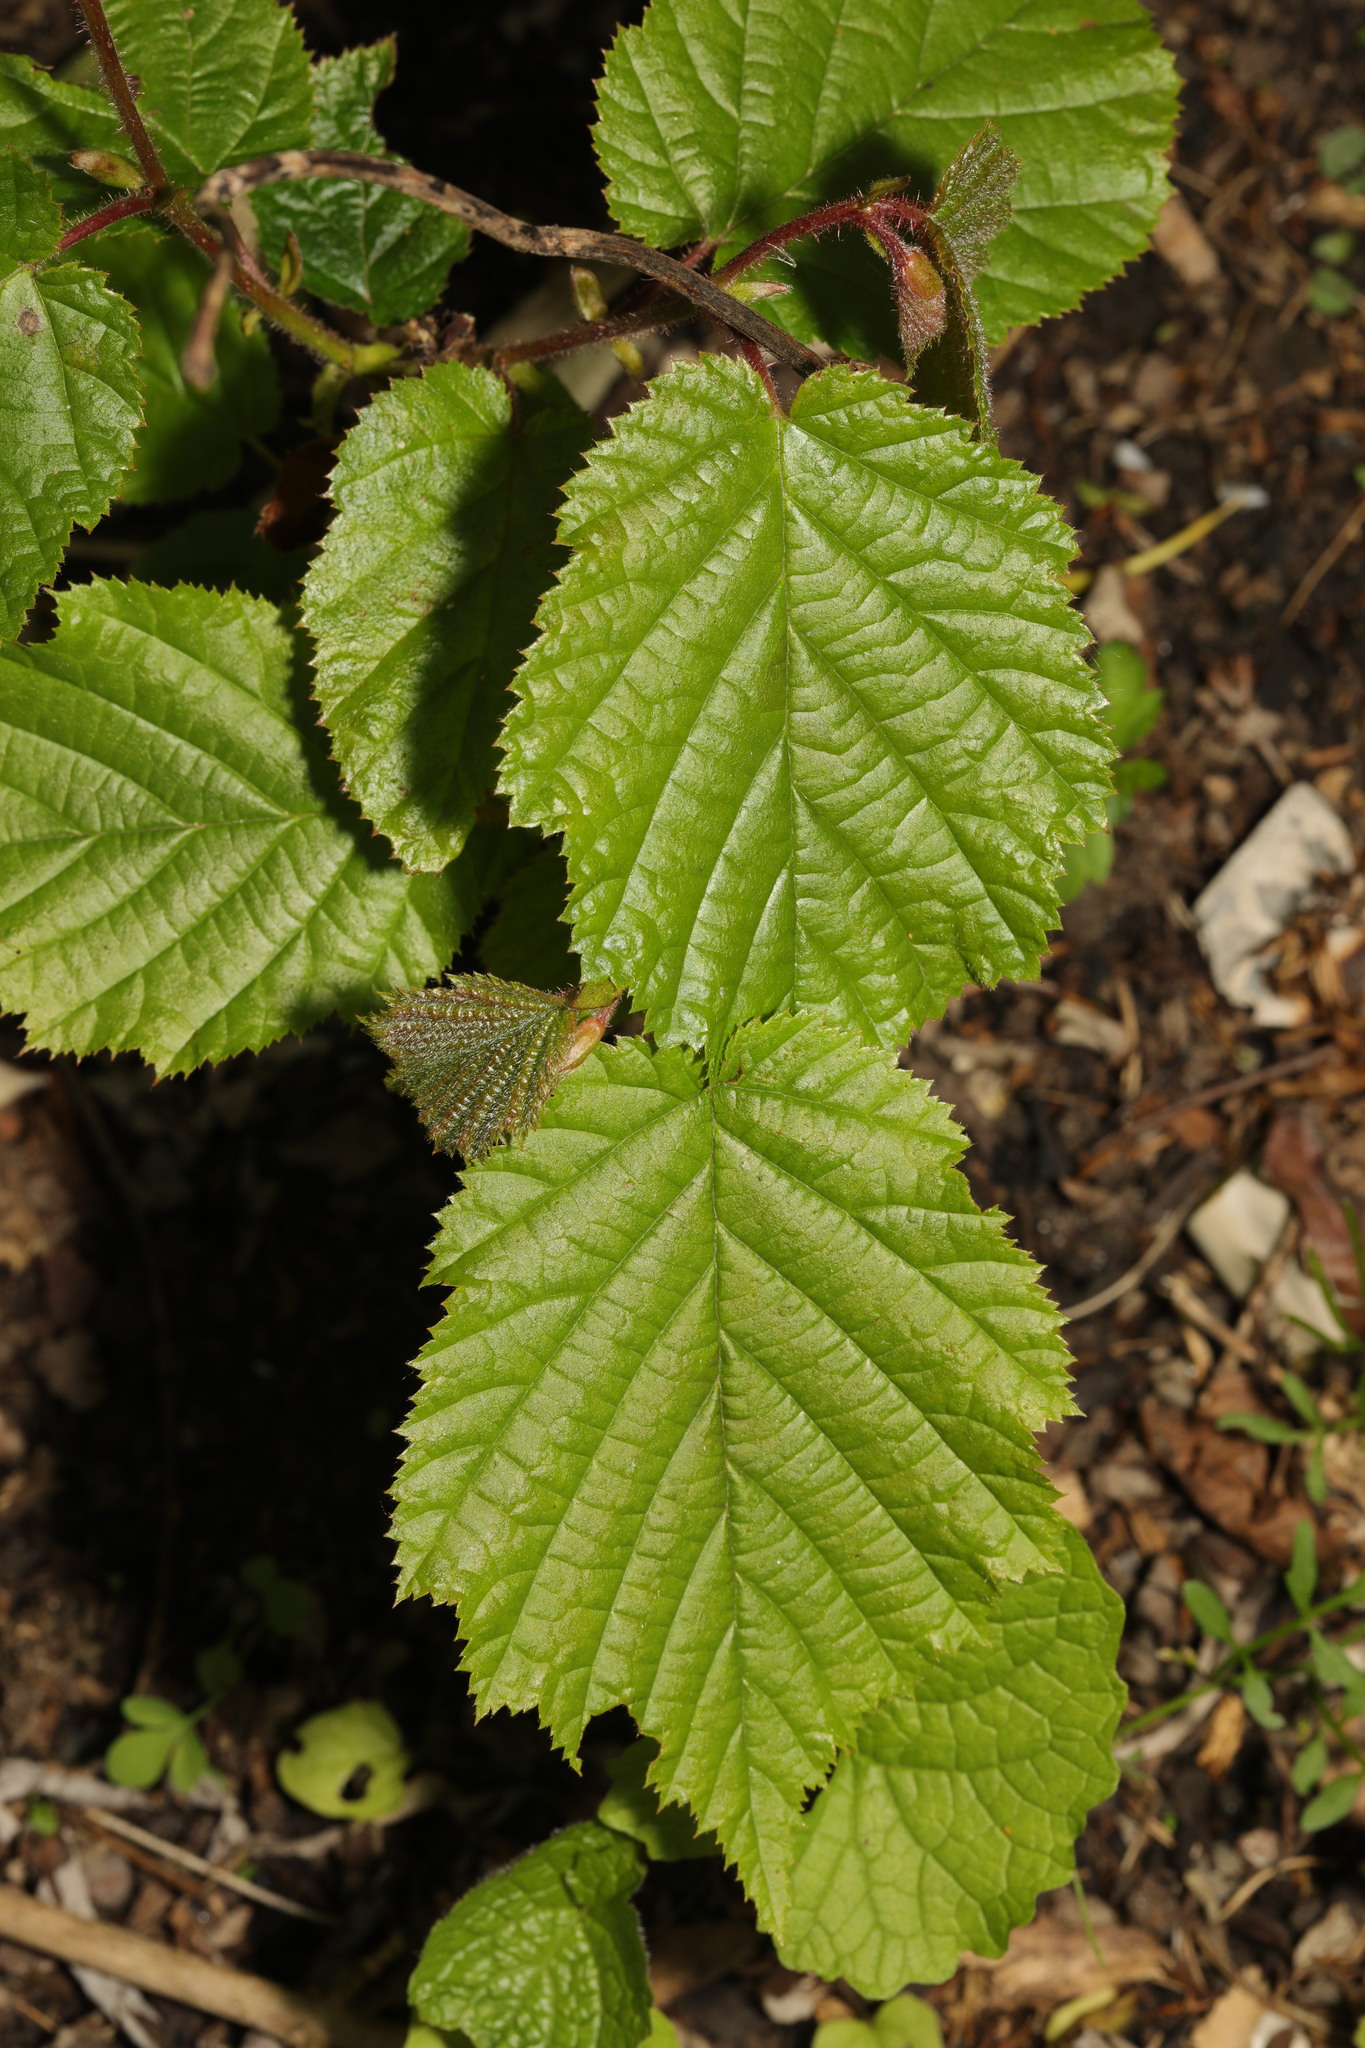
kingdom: Plantae
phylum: Tracheophyta
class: Magnoliopsida
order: Fagales
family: Betulaceae
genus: Corylus
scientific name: Corylus avellana
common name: European hazel
